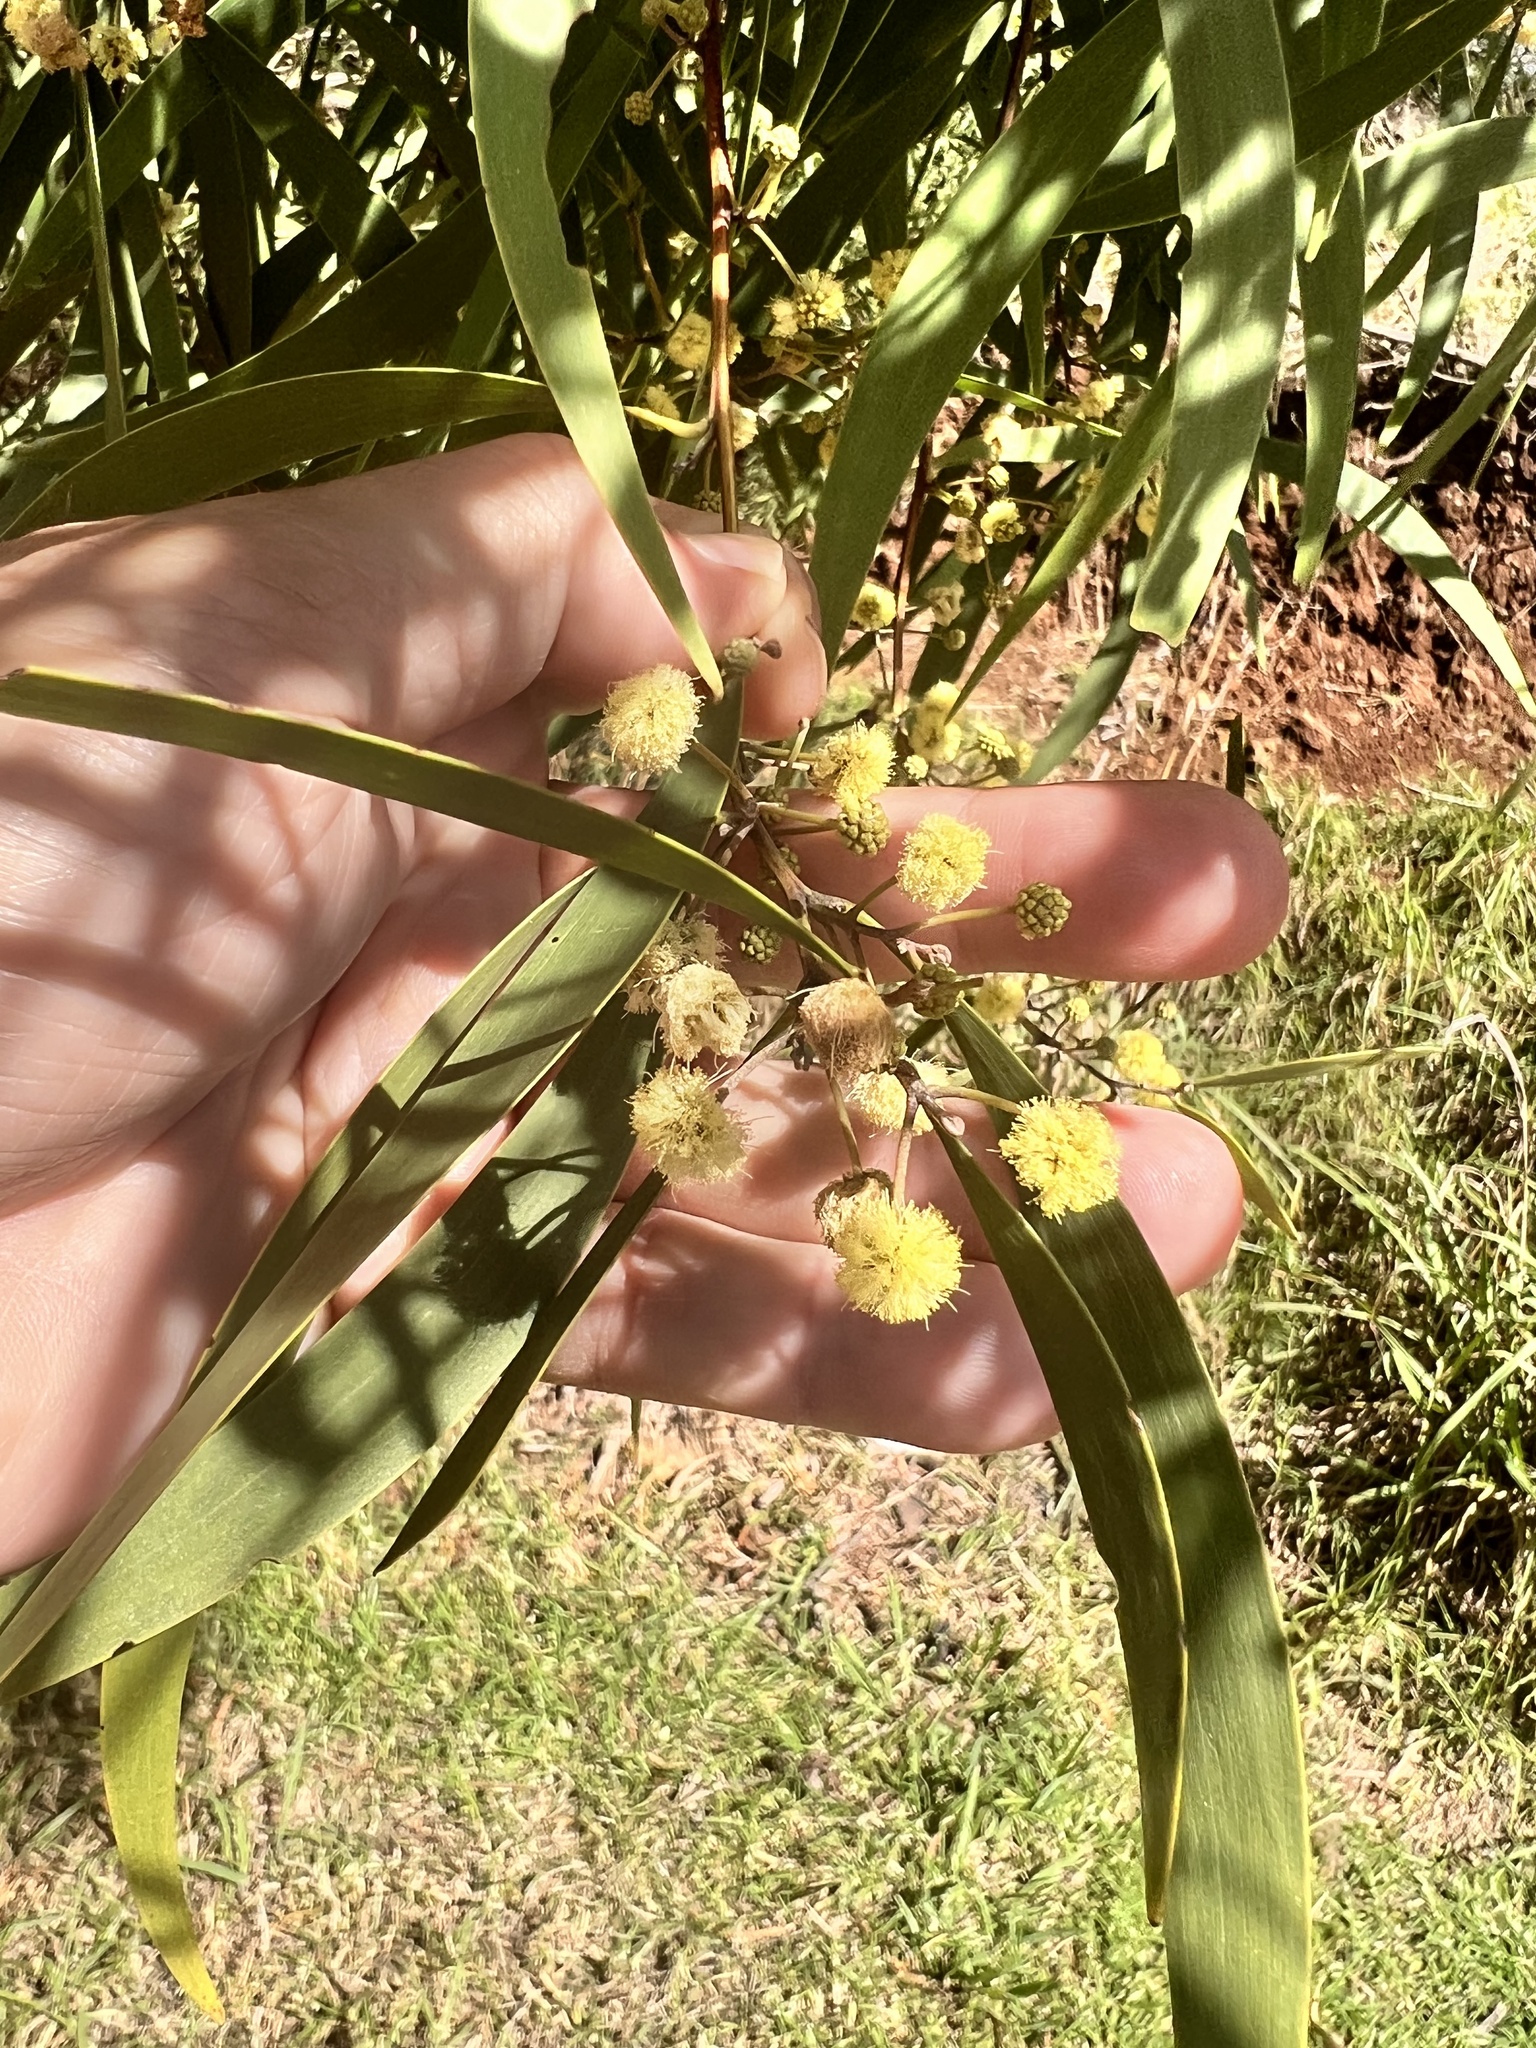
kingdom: Plantae
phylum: Tracheophyta
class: Magnoliopsida
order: Fabales
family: Fabaceae
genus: Acacia
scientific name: Acacia koa
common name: Gray koa
